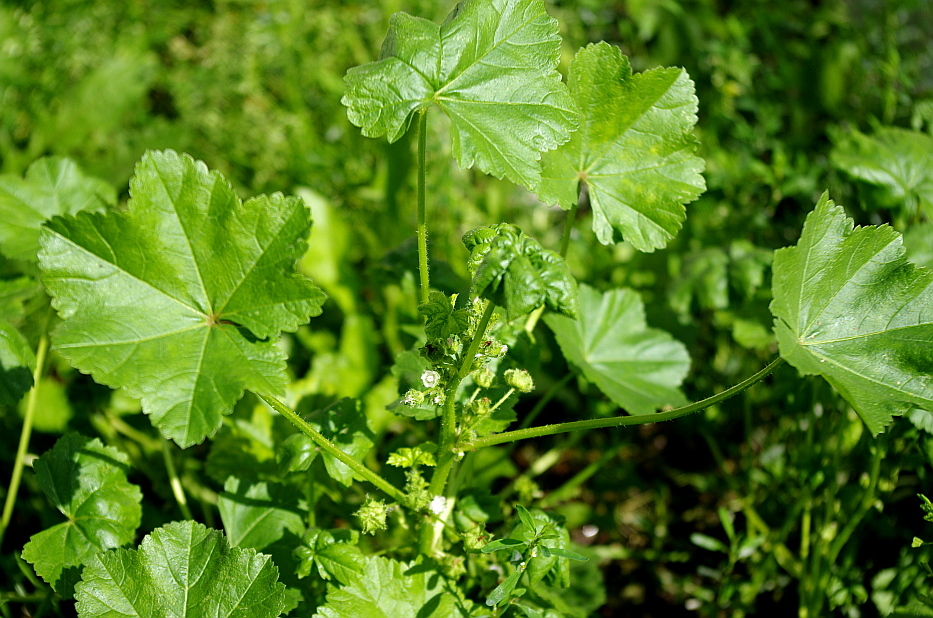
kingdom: Plantae
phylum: Tracheophyta
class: Magnoliopsida
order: Malvales
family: Malvaceae
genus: Malva
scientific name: Malva pusilla
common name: Small mallow
